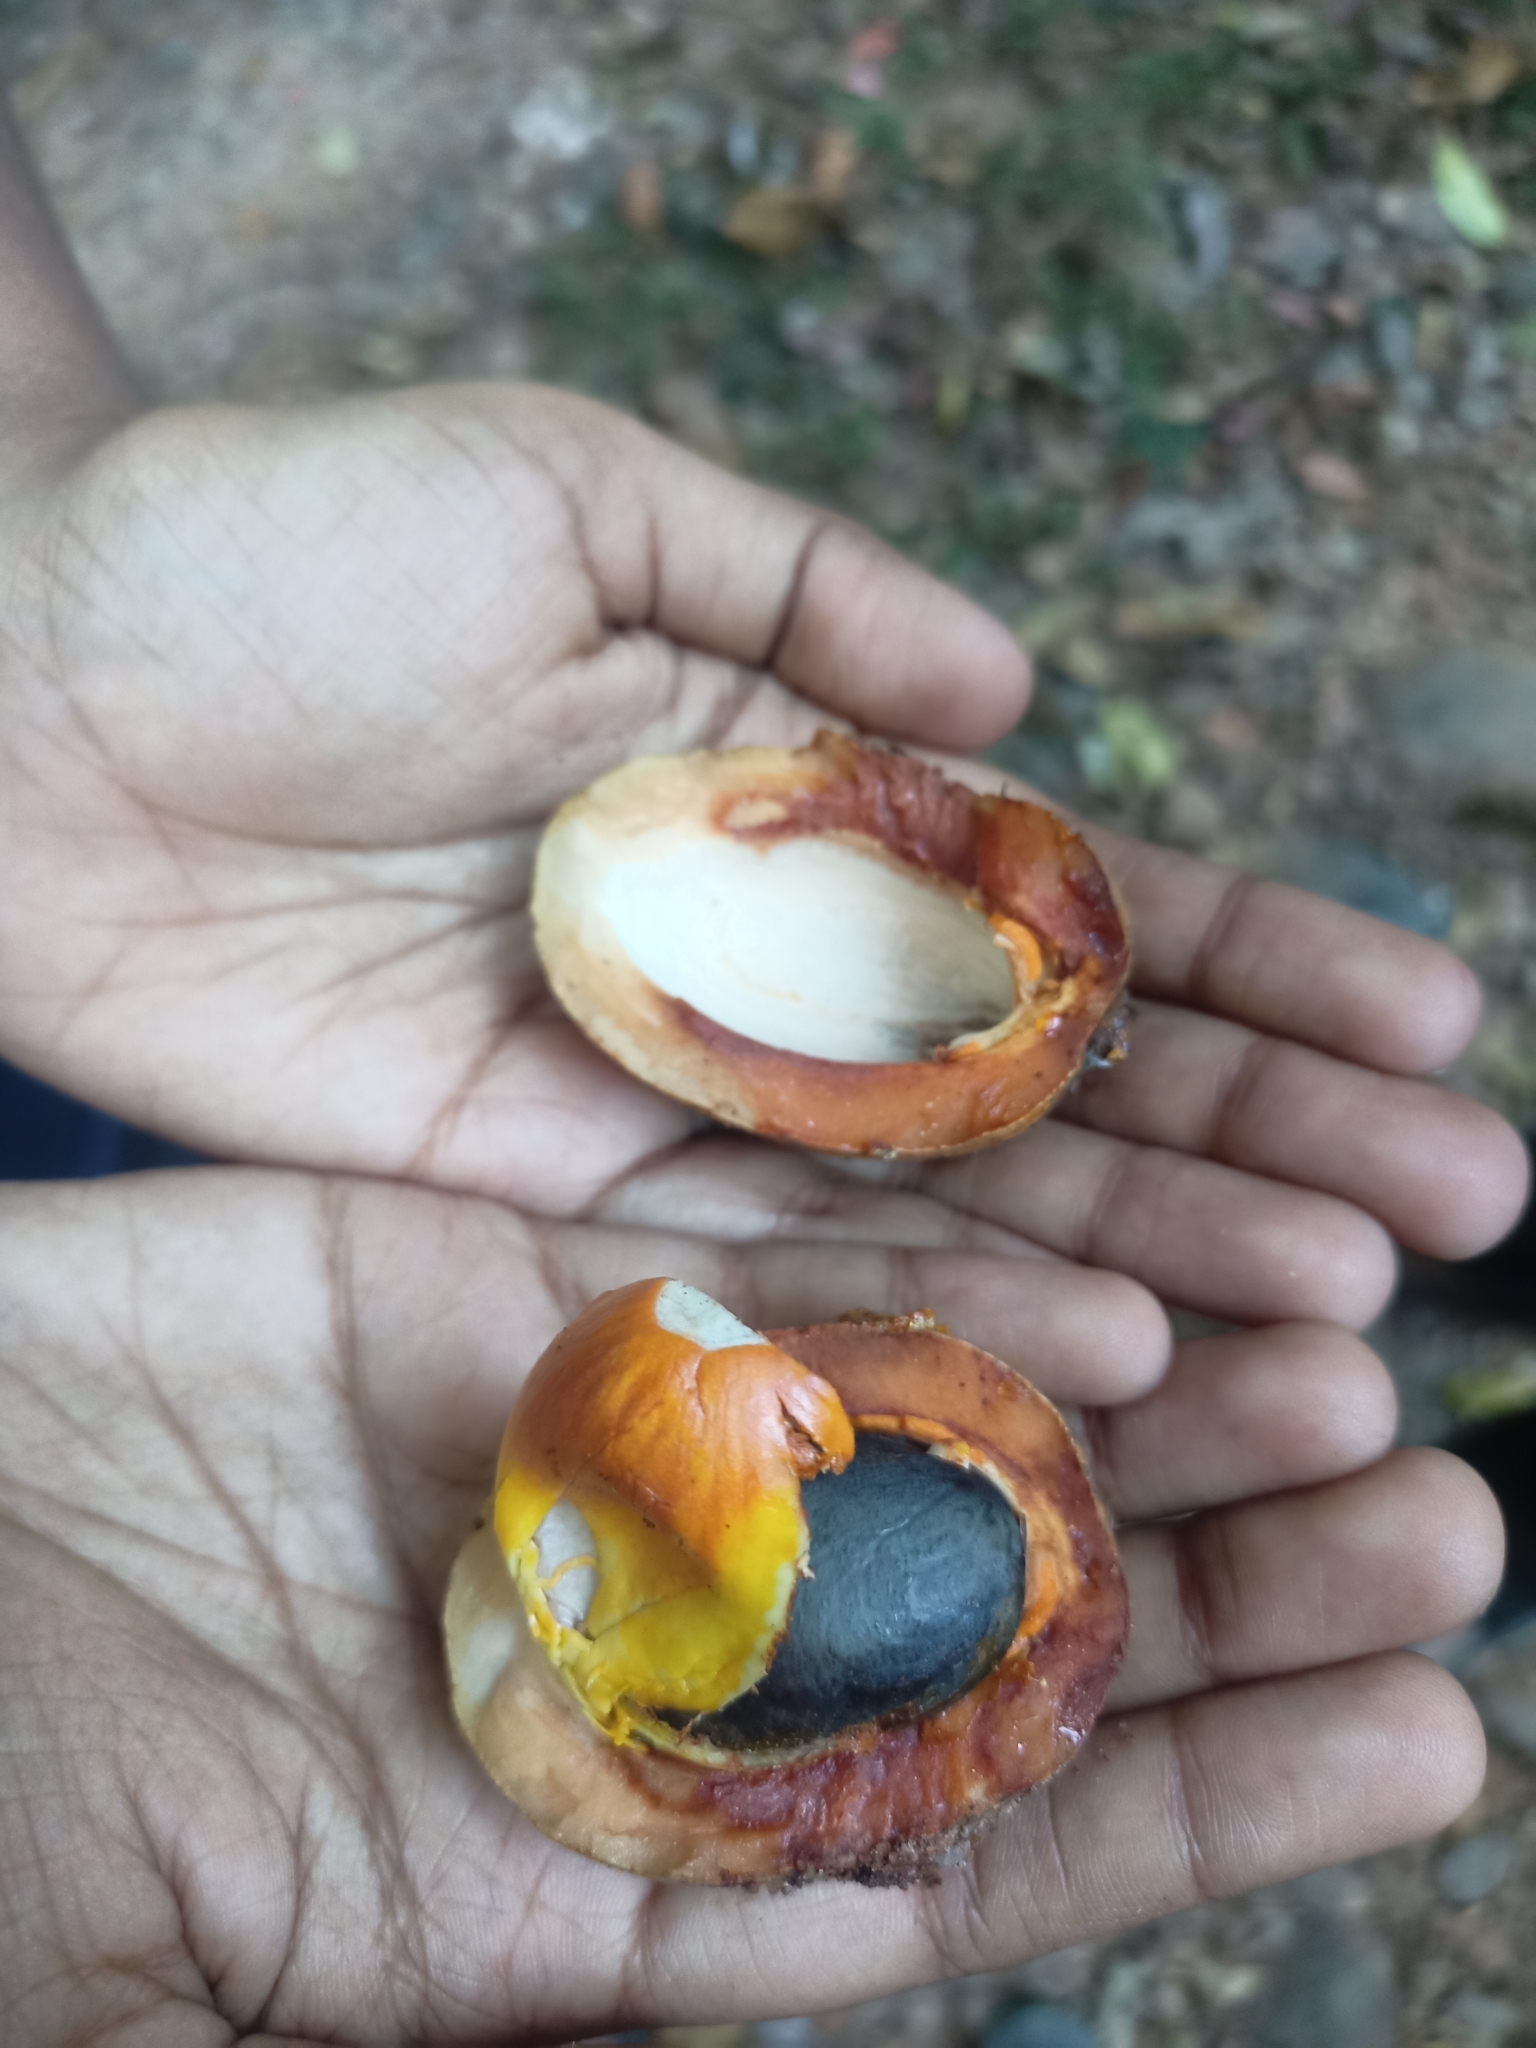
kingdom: Plantae
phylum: Tracheophyta
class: Magnoliopsida
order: Magnoliales
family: Myristicaceae
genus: Myristica
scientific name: Myristica
